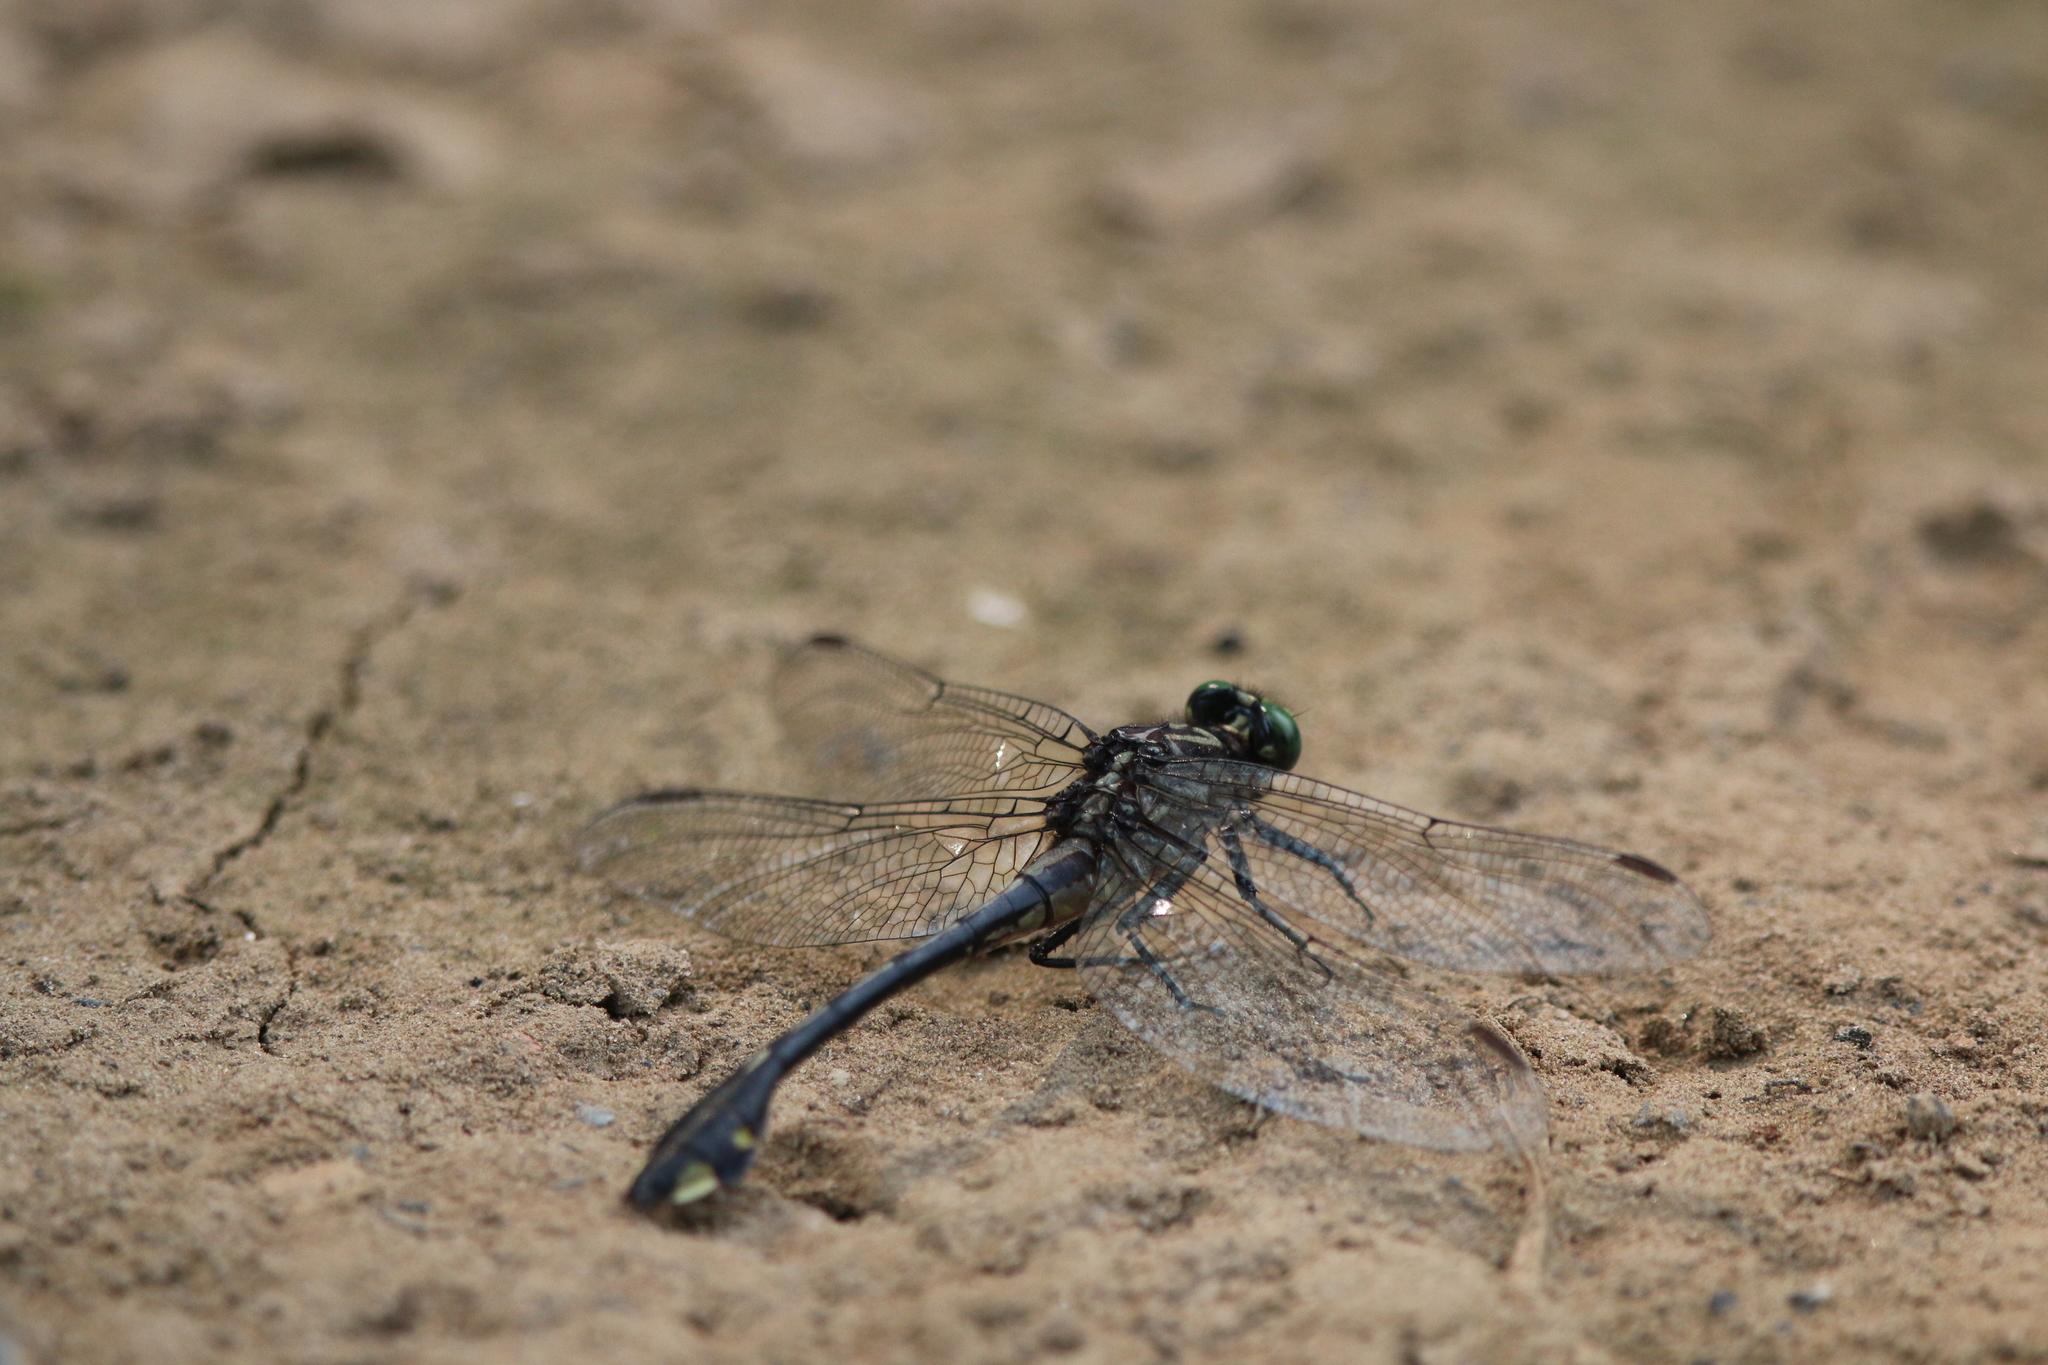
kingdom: Animalia
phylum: Arthropoda
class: Insecta
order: Odonata
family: Gomphidae
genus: Gomphurus
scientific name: Gomphurus vastus
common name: Cobra clubtail
